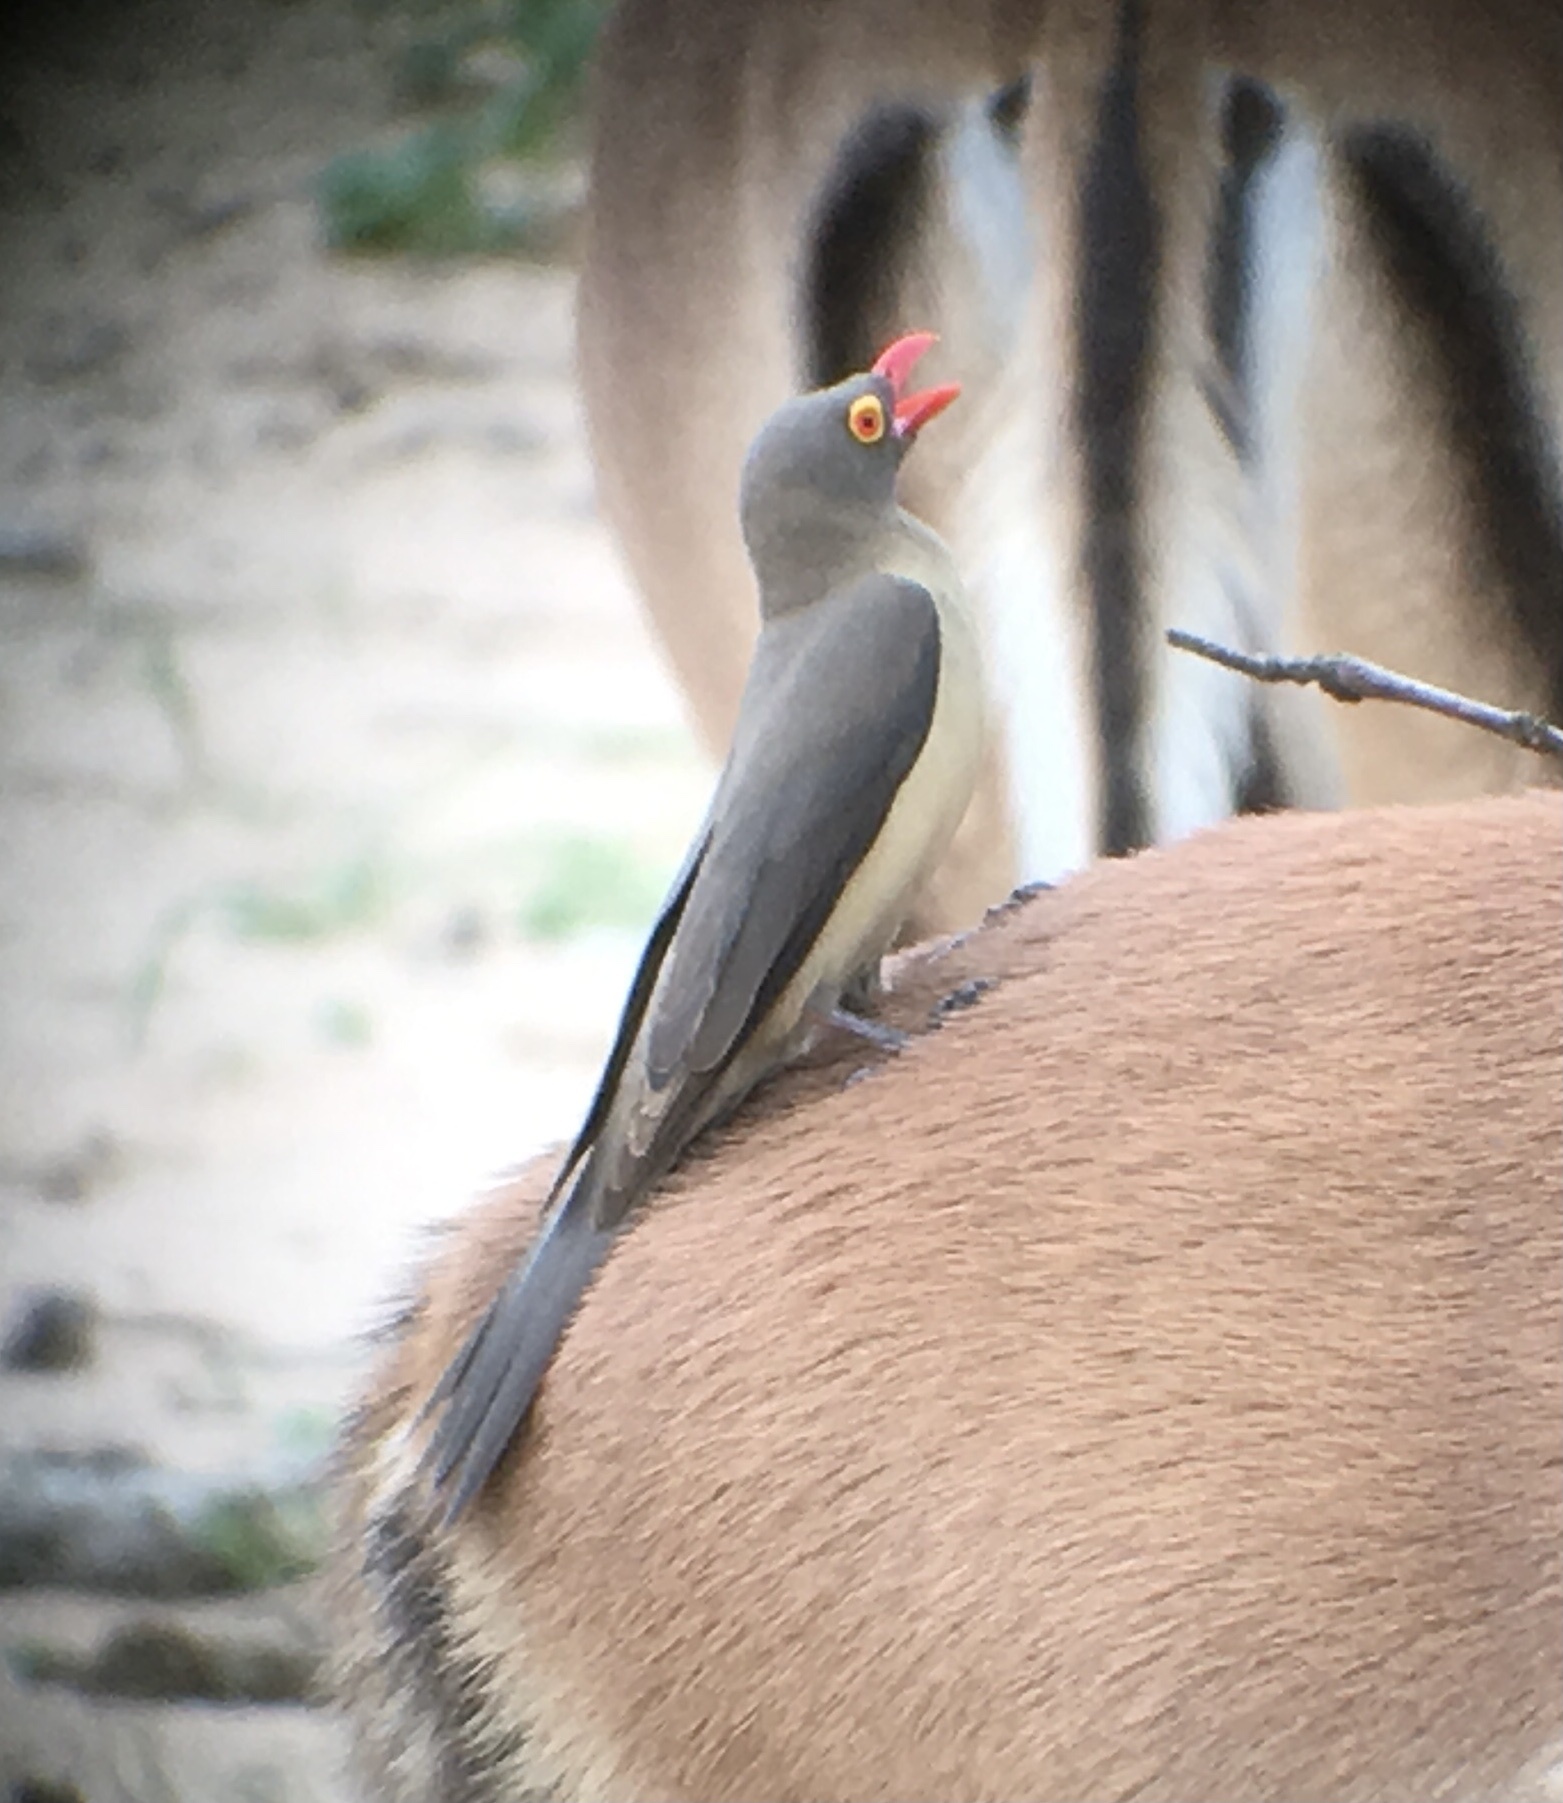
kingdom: Animalia
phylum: Chordata
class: Aves
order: Passeriformes
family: Buphagidae
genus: Buphagus
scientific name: Buphagus erythrorhynchus
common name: Red-billed oxpecker
